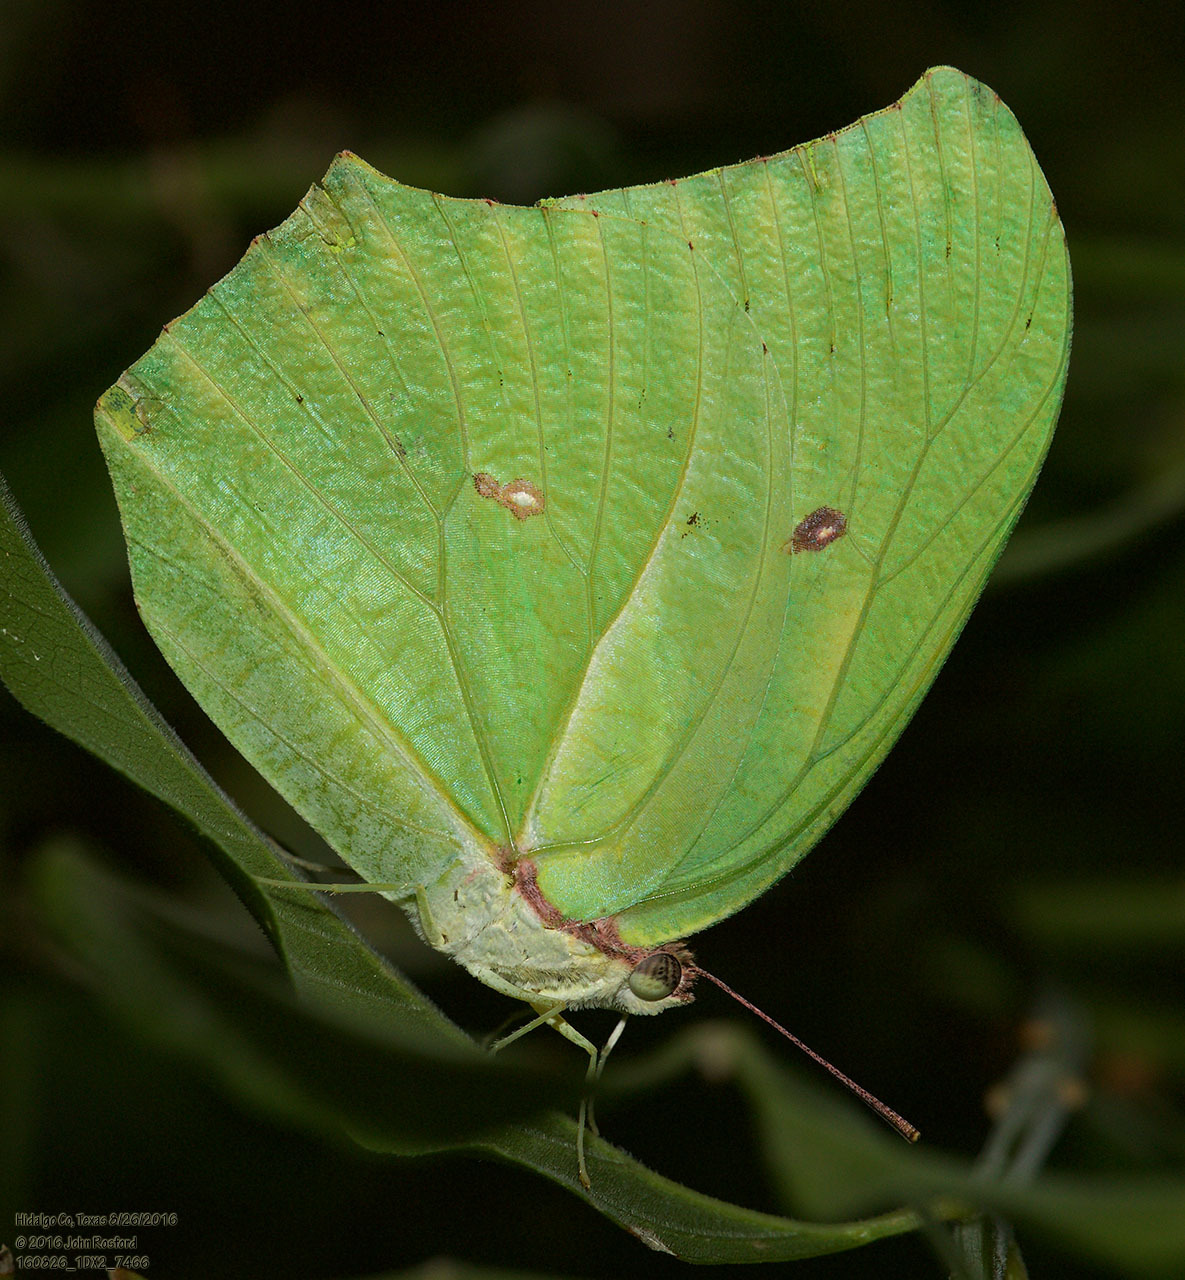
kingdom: Animalia
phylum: Arthropoda
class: Insecta
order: Lepidoptera
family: Pieridae
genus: Anteos
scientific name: Anteos maerula
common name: Angled sulphur
